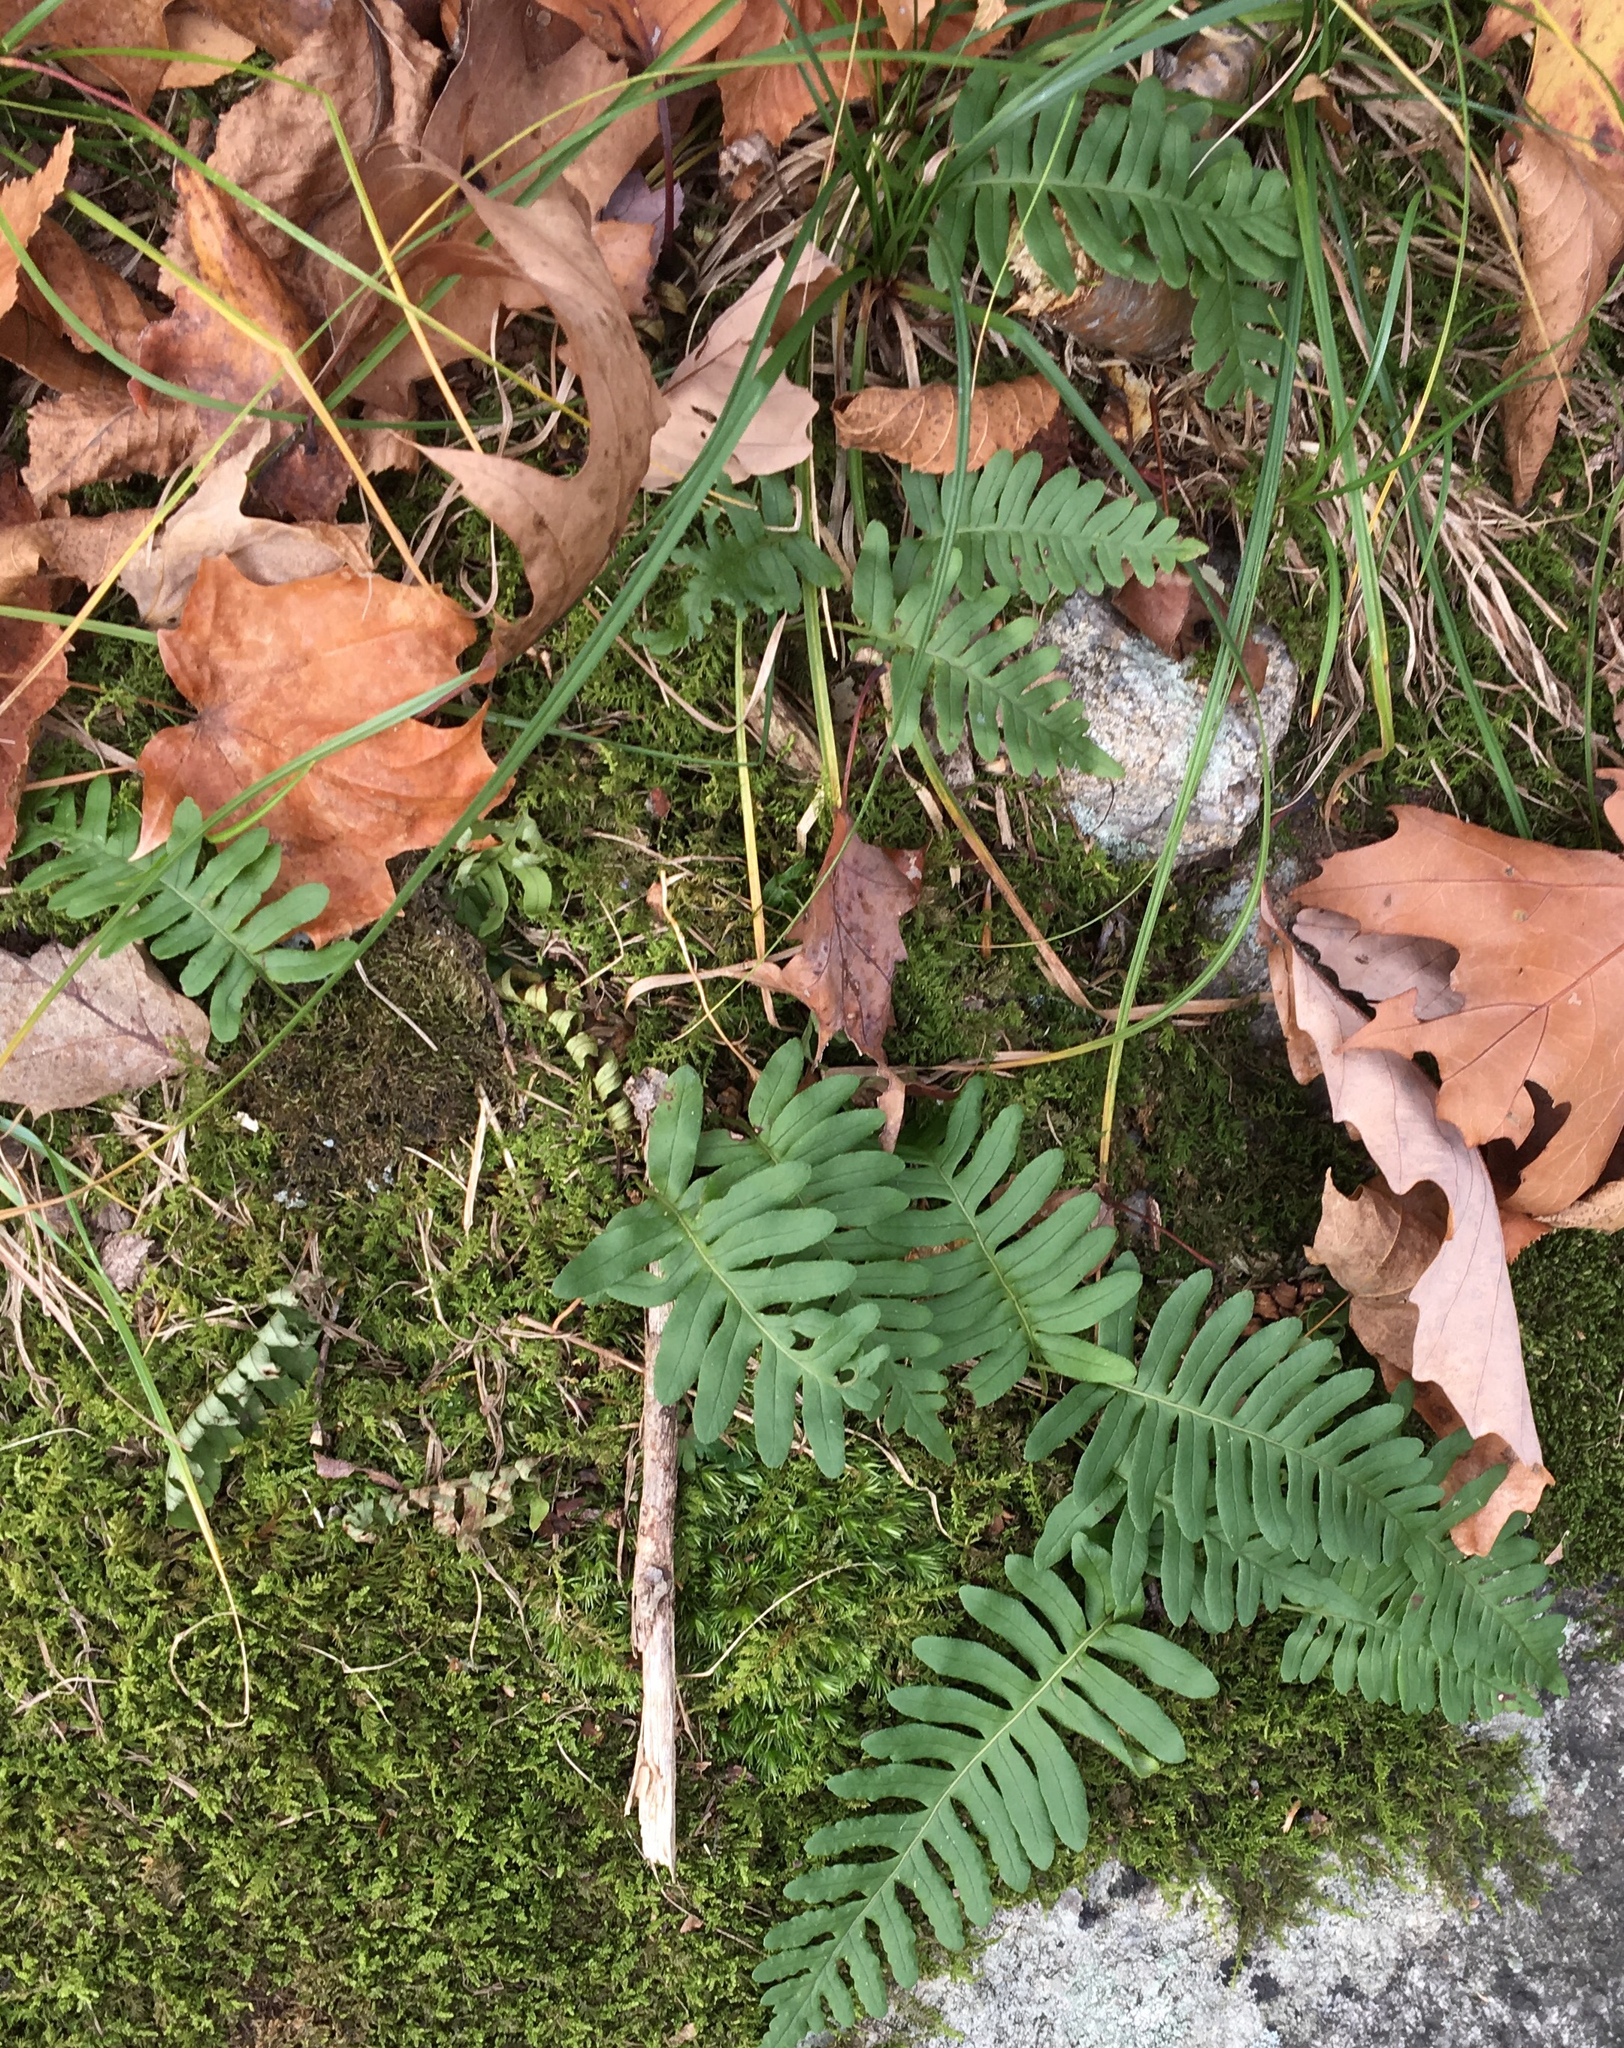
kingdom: Plantae
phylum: Tracheophyta
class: Polypodiopsida
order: Polypodiales
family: Polypodiaceae
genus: Polypodium
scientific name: Polypodium virginianum
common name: American wall fern
